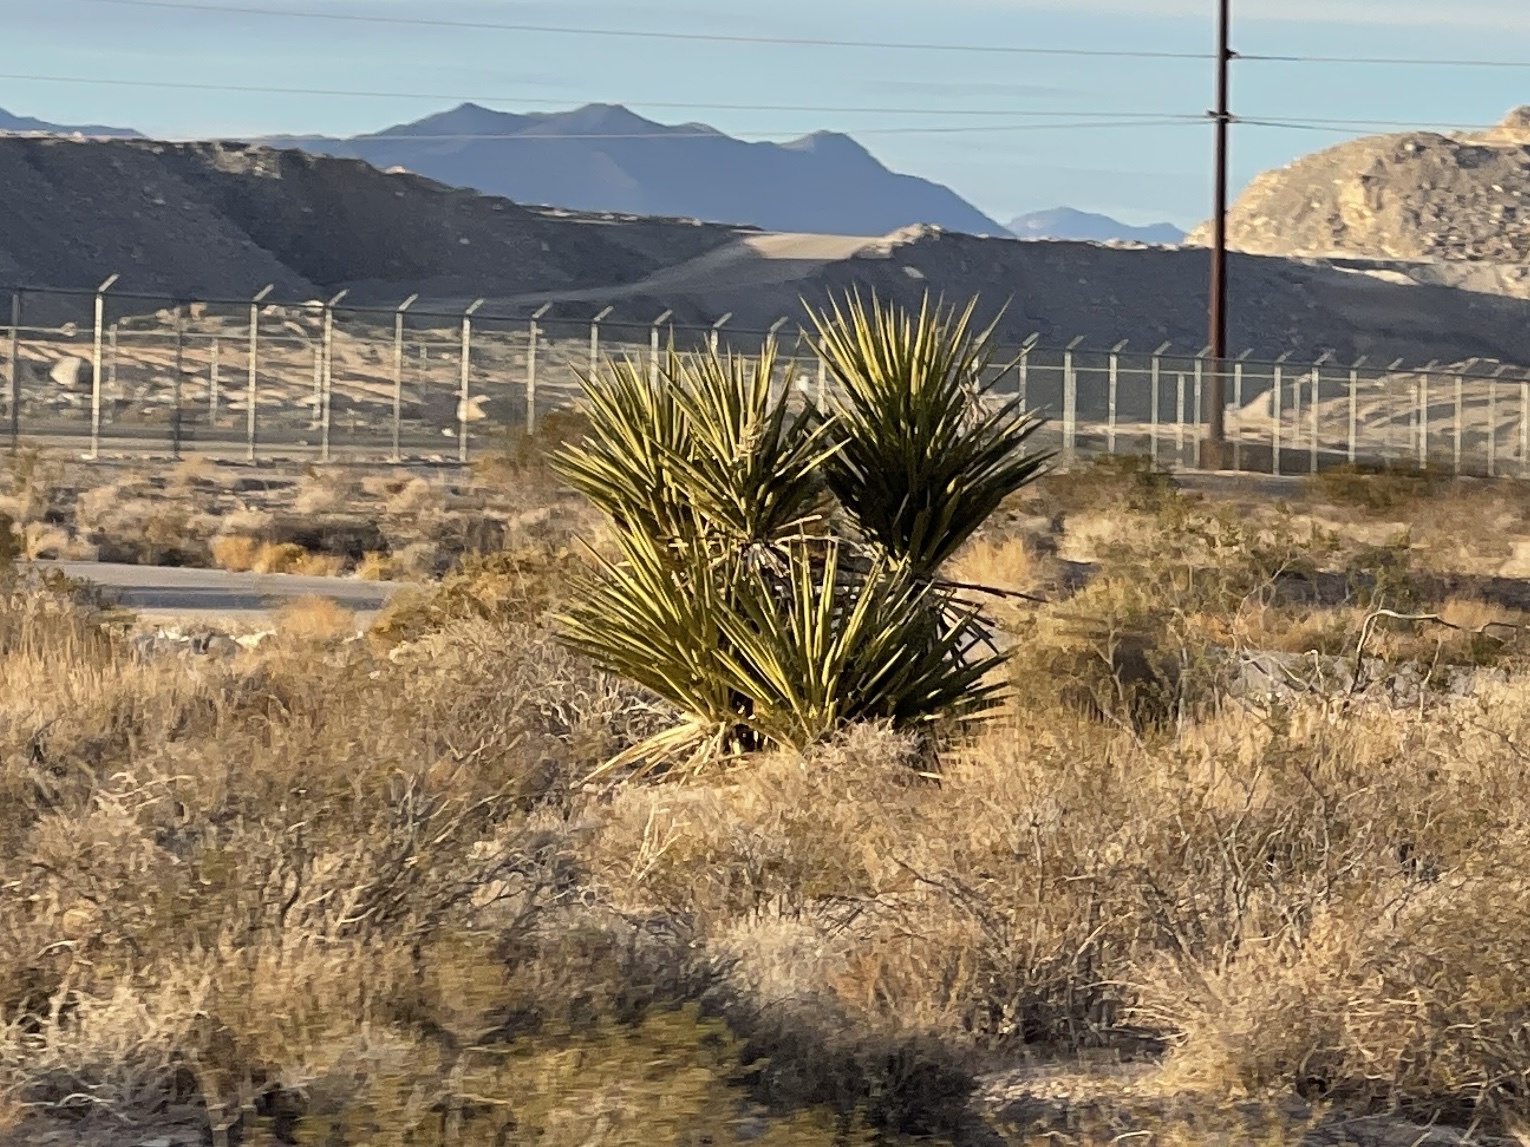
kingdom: Plantae
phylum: Tracheophyta
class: Liliopsida
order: Asparagales
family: Asparagaceae
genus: Yucca
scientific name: Yucca schidigera
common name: Mojave yucca
